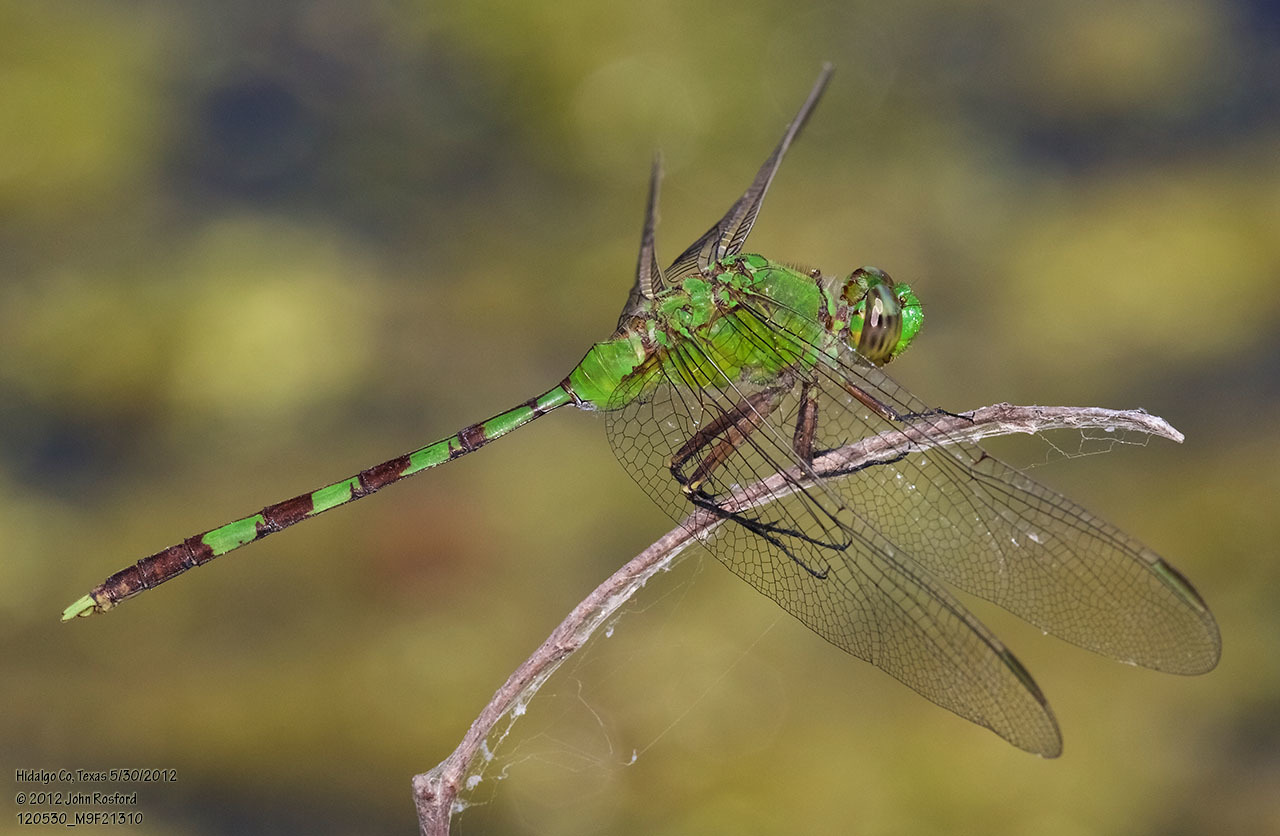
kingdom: Animalia
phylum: Arthropoda
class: Insecta
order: Odonata
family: Libellulidae
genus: Erythemis
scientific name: Erythemis vesiculosa
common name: Great pondhawk
